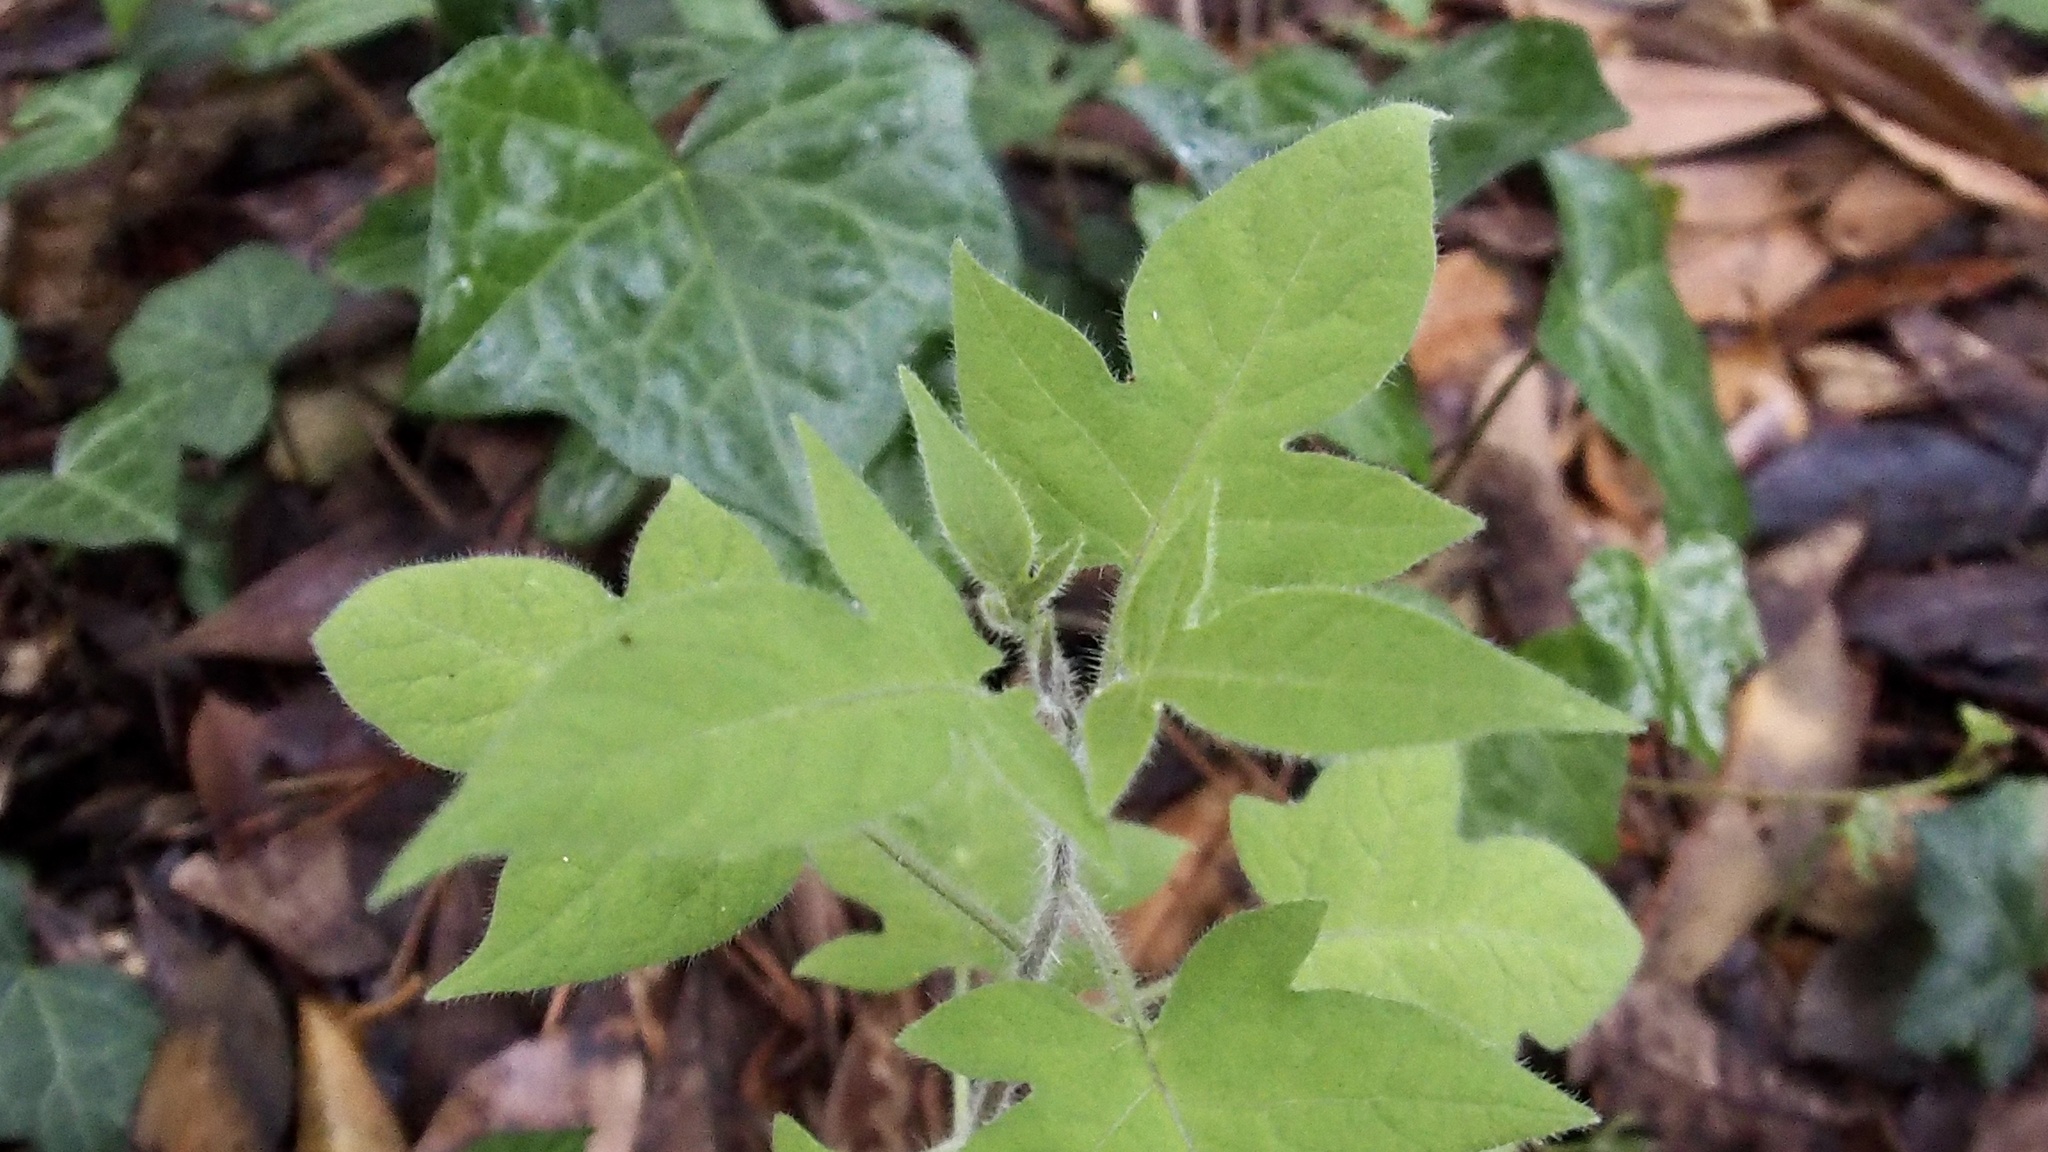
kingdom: Plantae
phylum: Tracheophyta
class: Magnoliopsida
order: Solanales
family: Solanaceae
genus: Solanum
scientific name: Solanum lyratum
